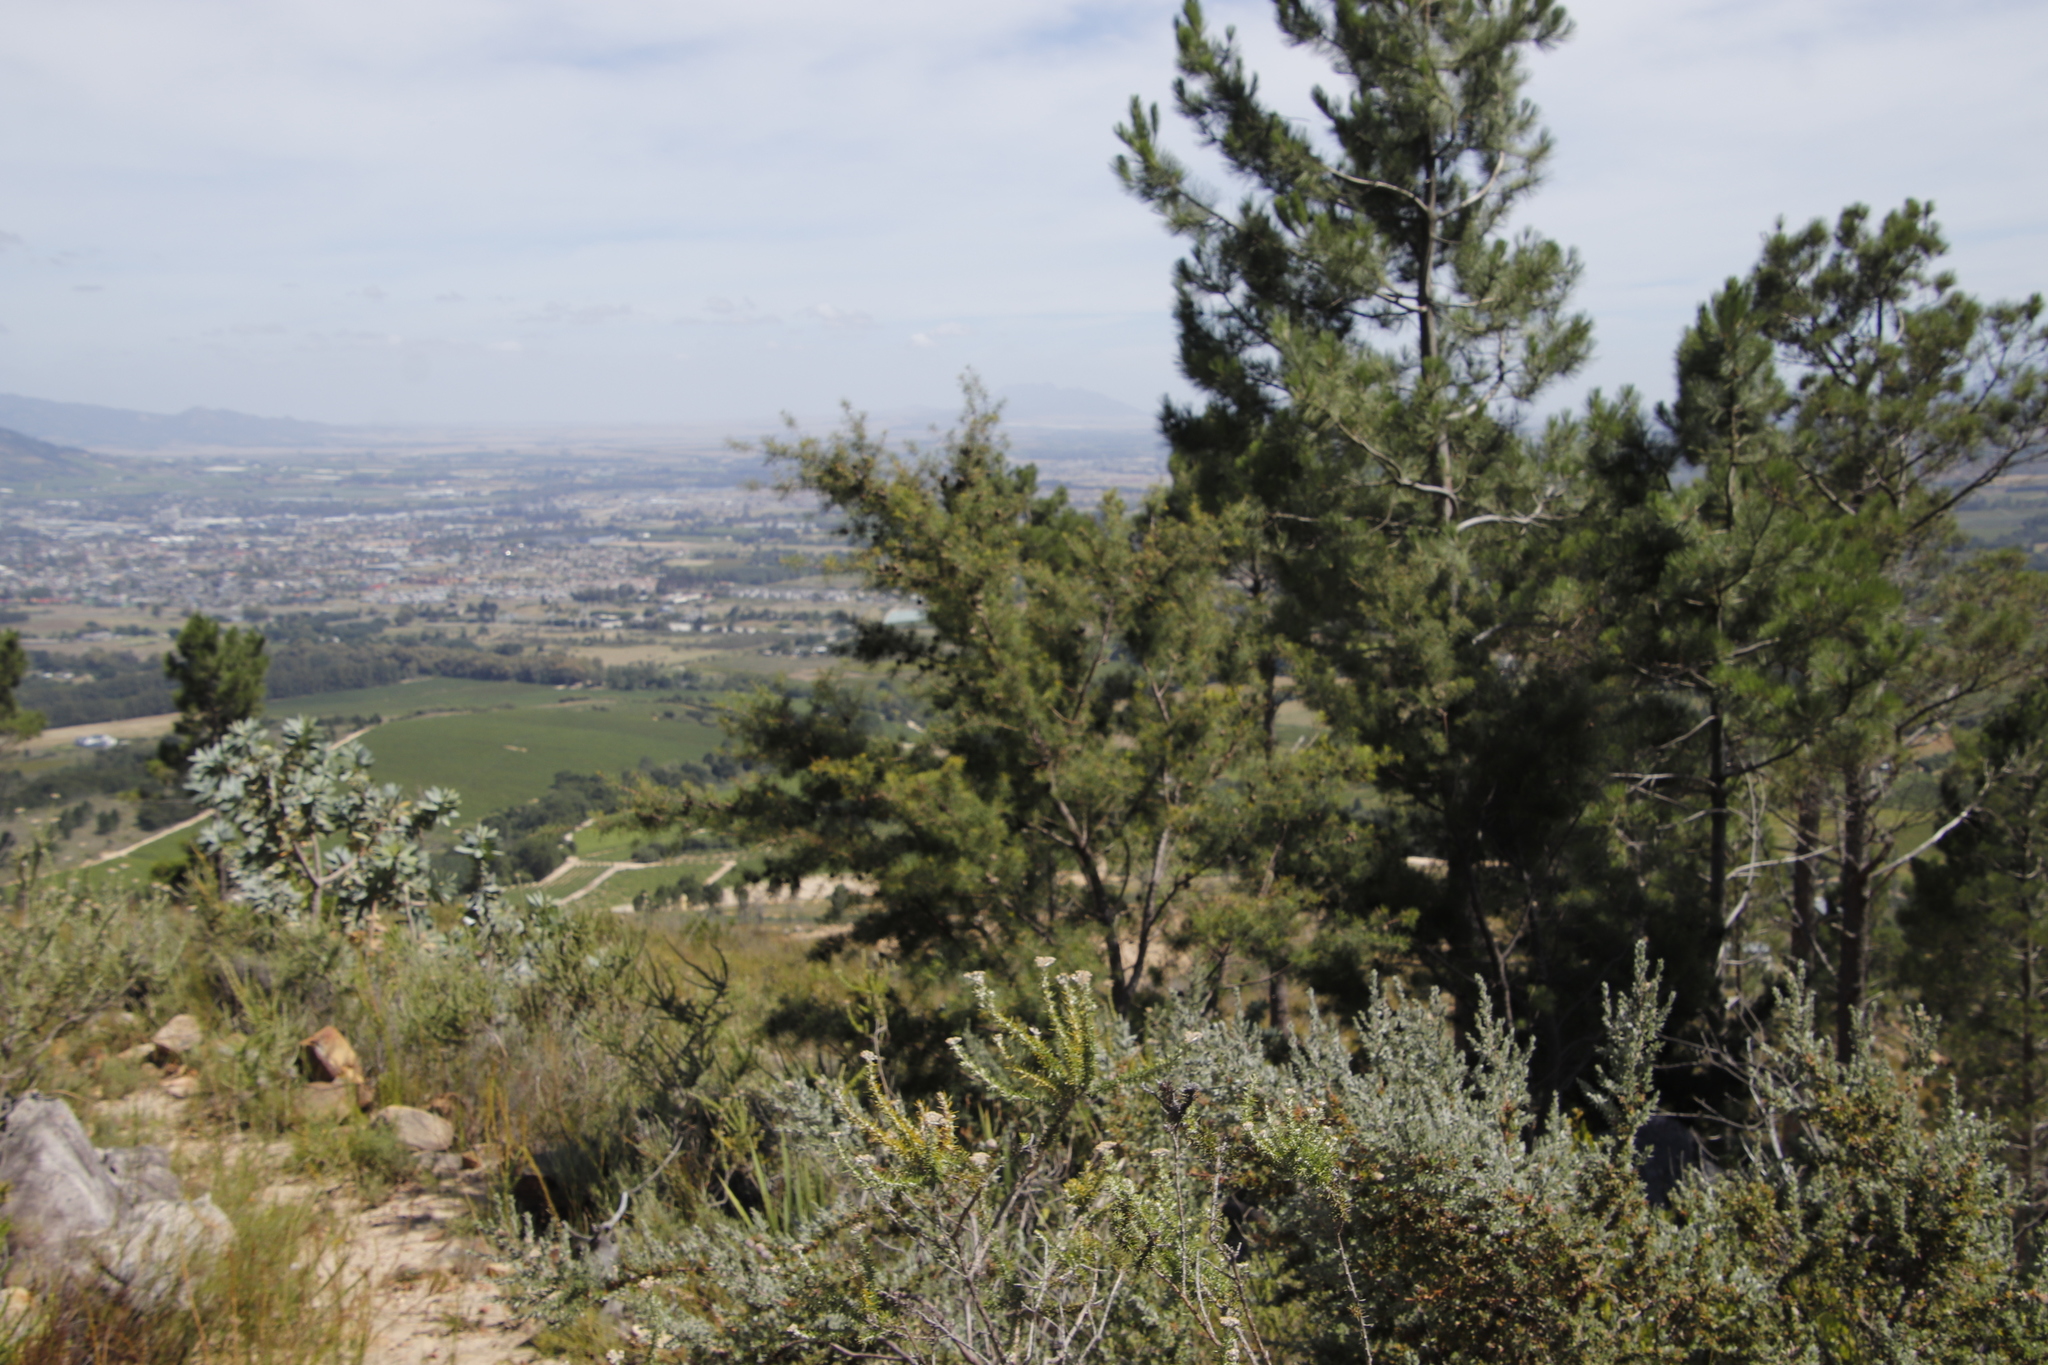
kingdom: Plantae
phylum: Tracheophyta
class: Magnoliopsida
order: Proteales
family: Proteaceae
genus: Hakea
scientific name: Hakea sericea
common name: Needle bush
